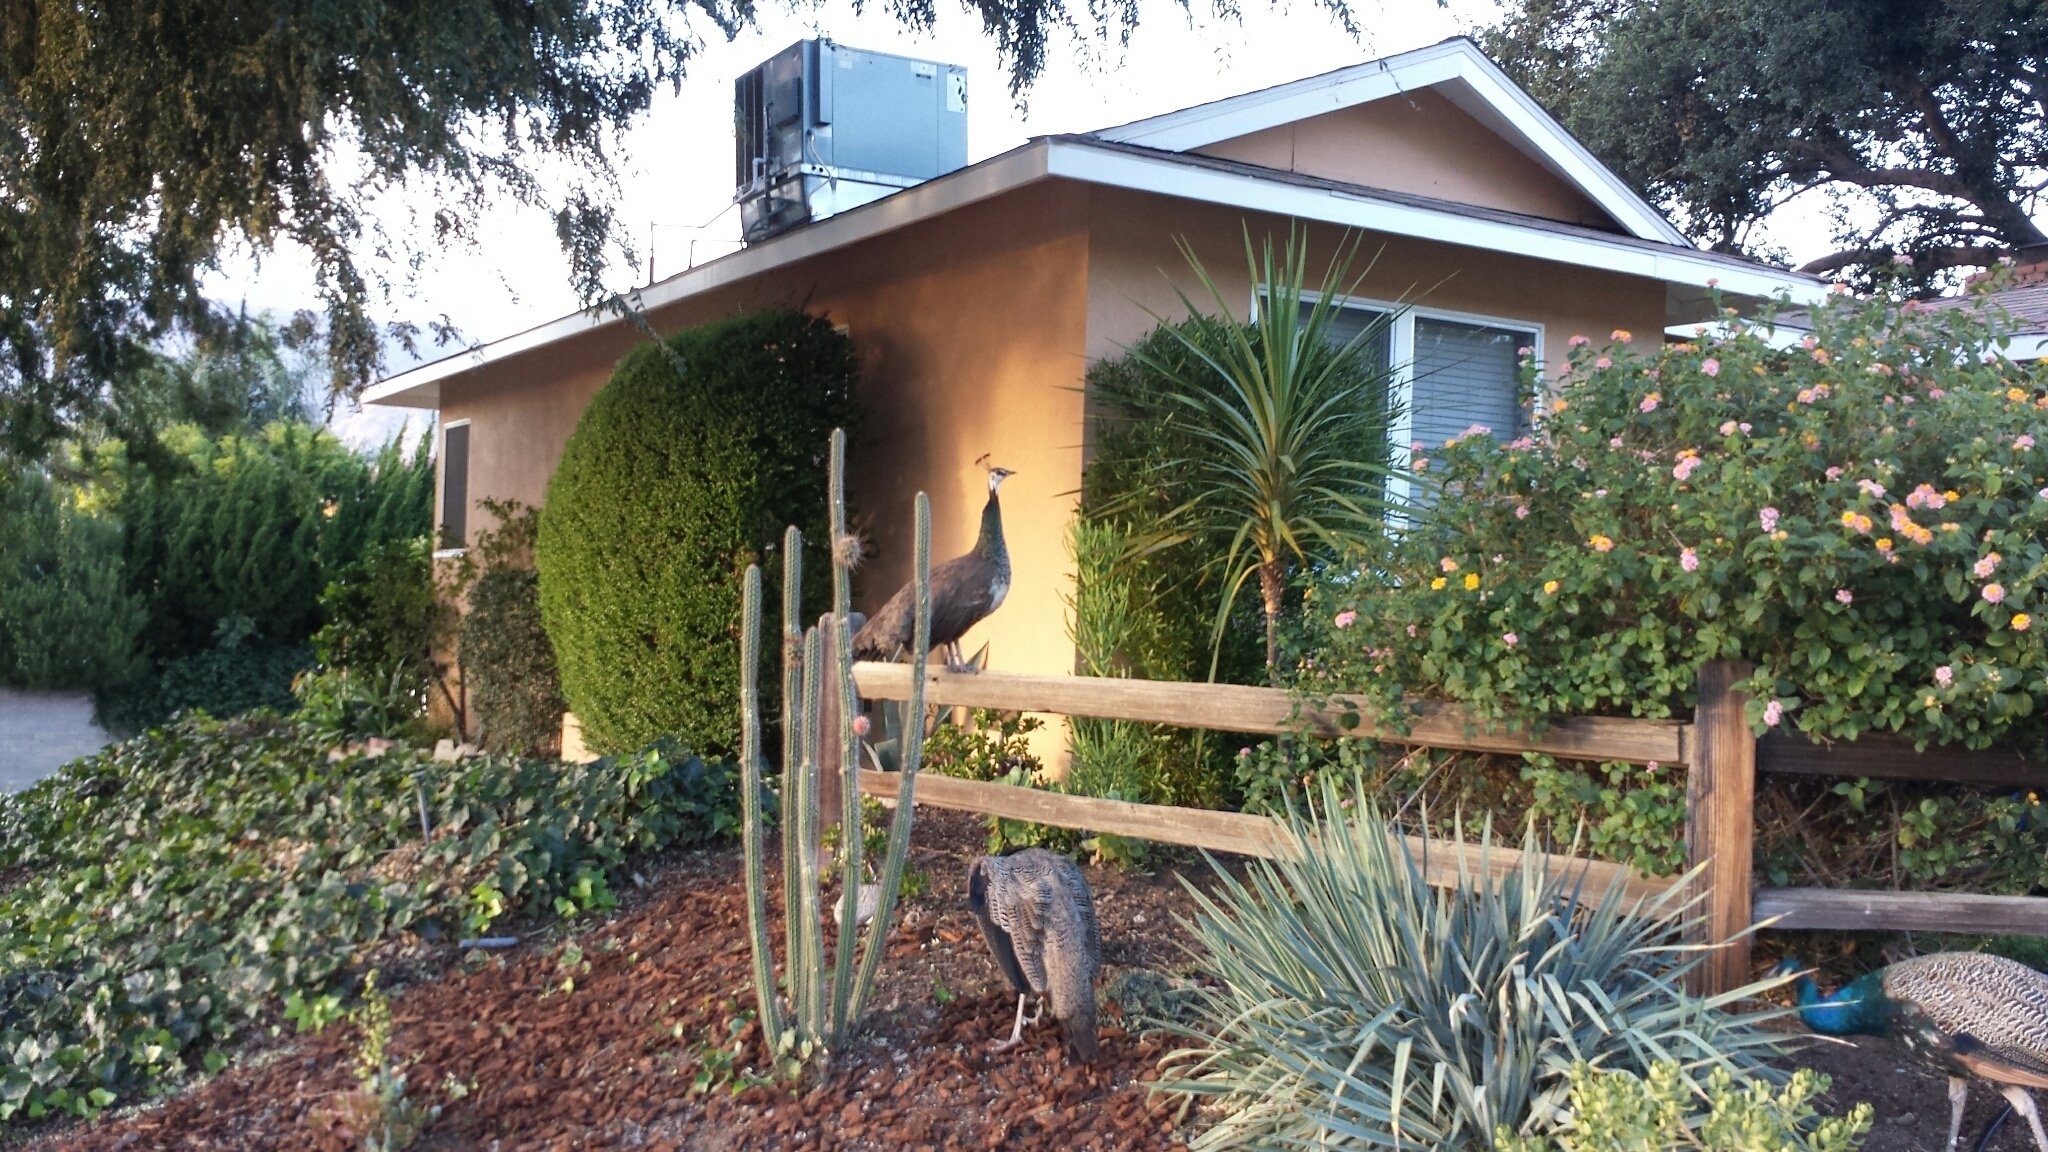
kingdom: Animalia
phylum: Chordata
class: Aves
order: Galliformes
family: Phasianidae
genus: Pavo
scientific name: Pavo cristatus
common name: Indian peafowl
